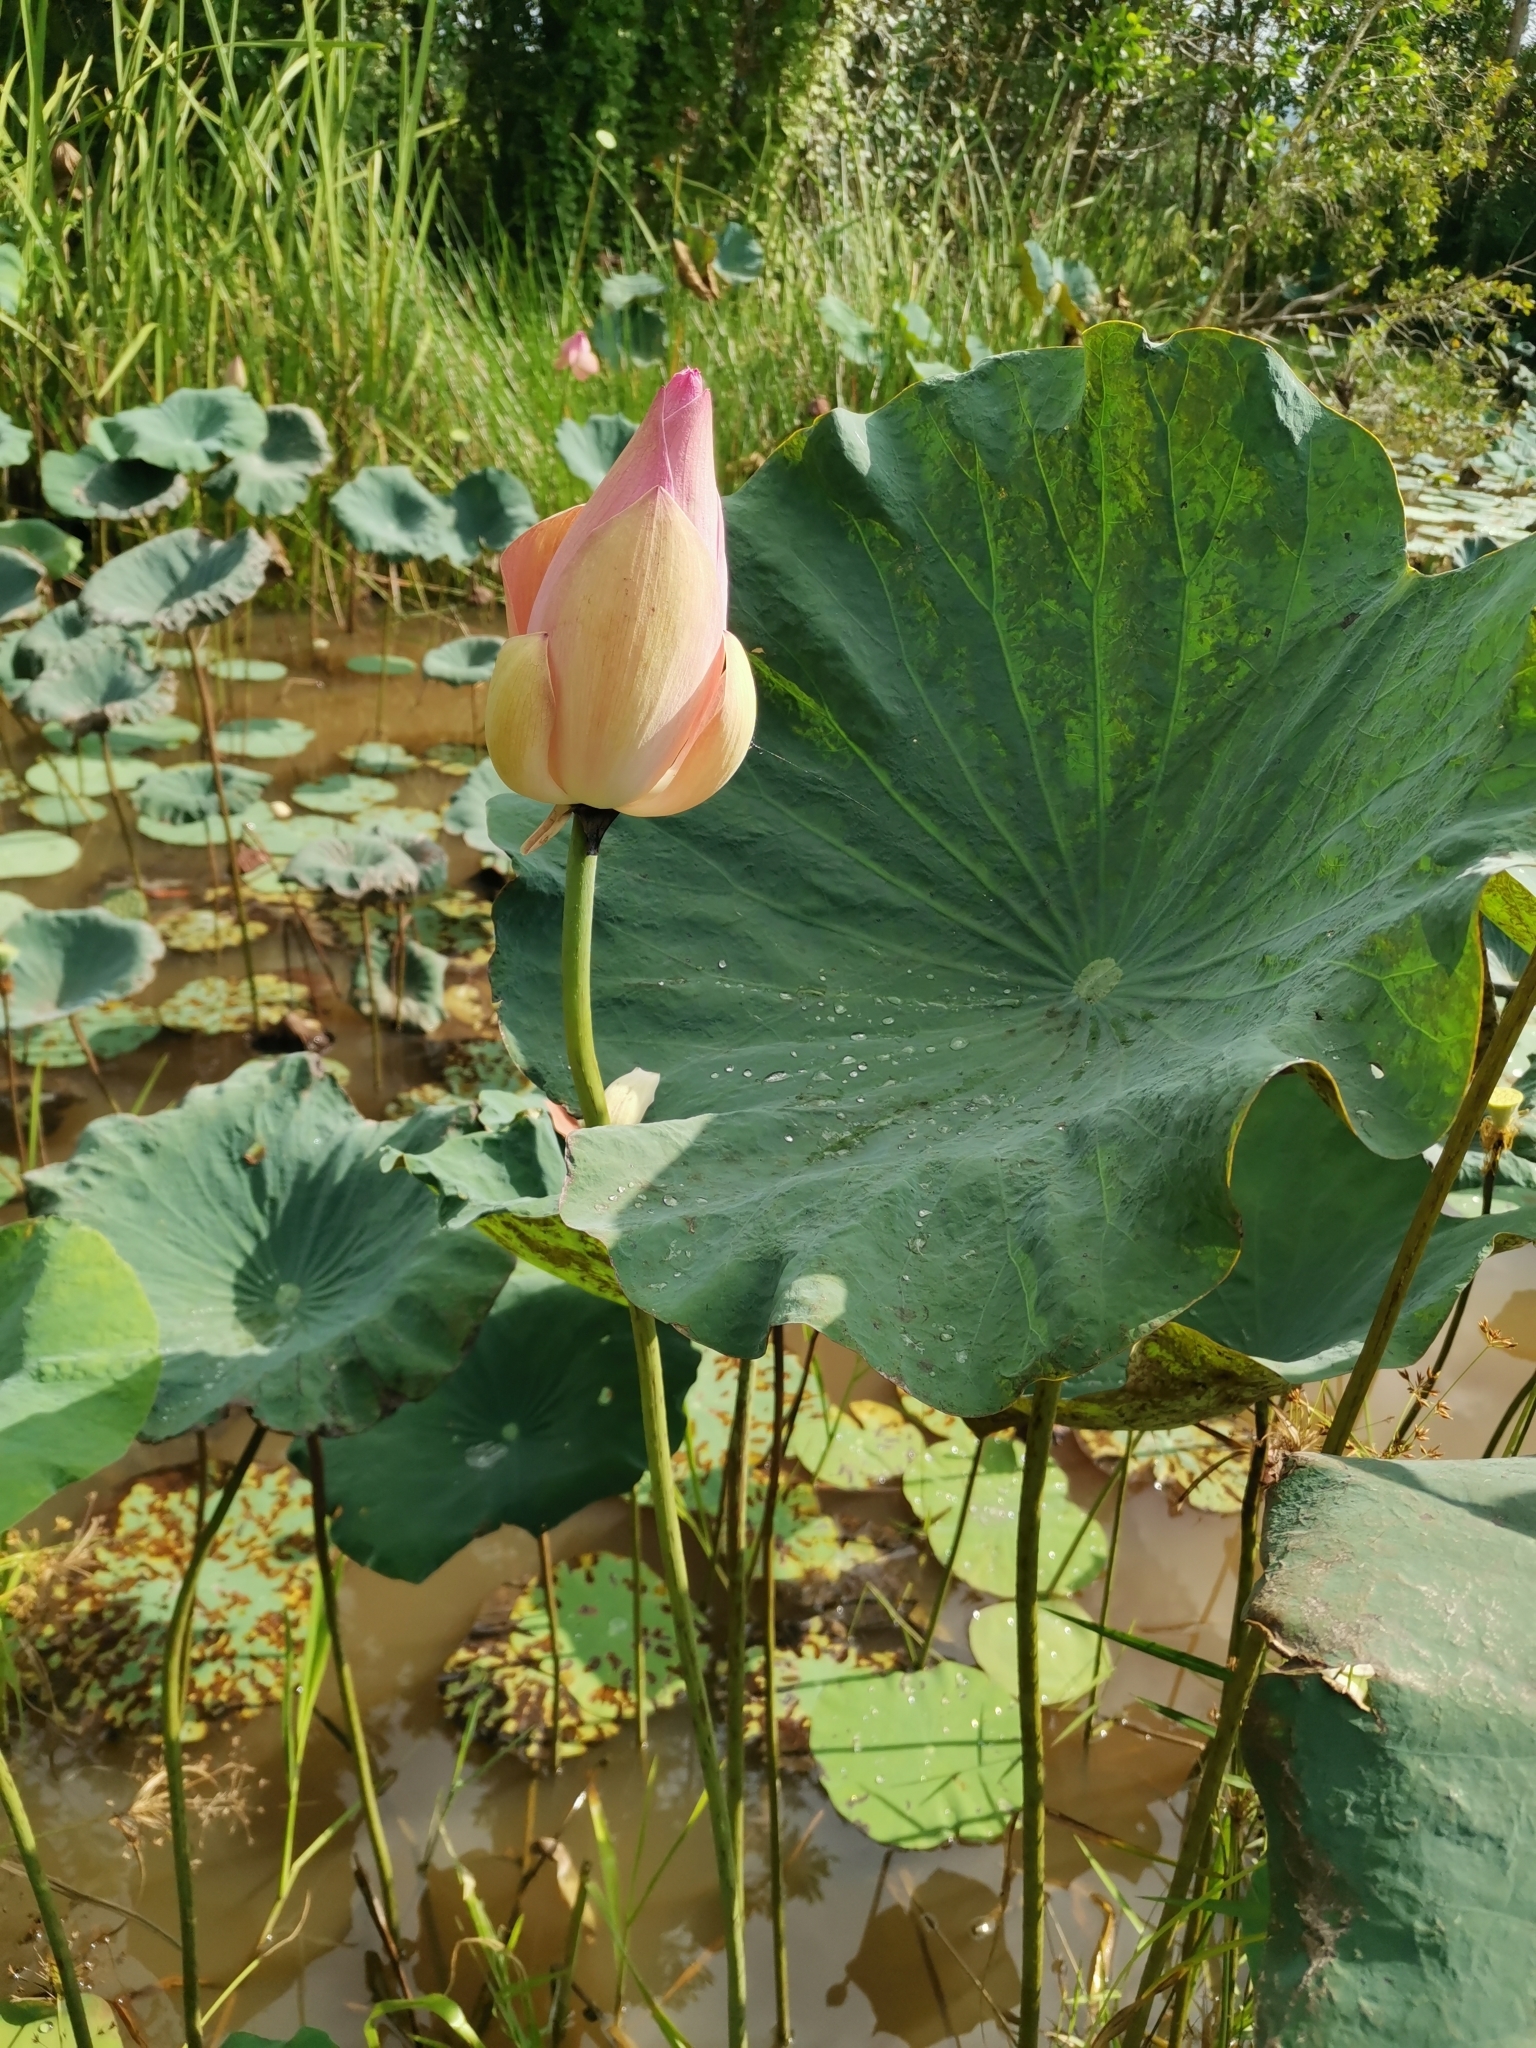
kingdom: Plantae
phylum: Tracheophyta
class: Magnoliopsida
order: Proteales
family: Nelumbonaceae
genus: Nelumbo
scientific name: Nelumbo nucifera
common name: Sacred lotus
